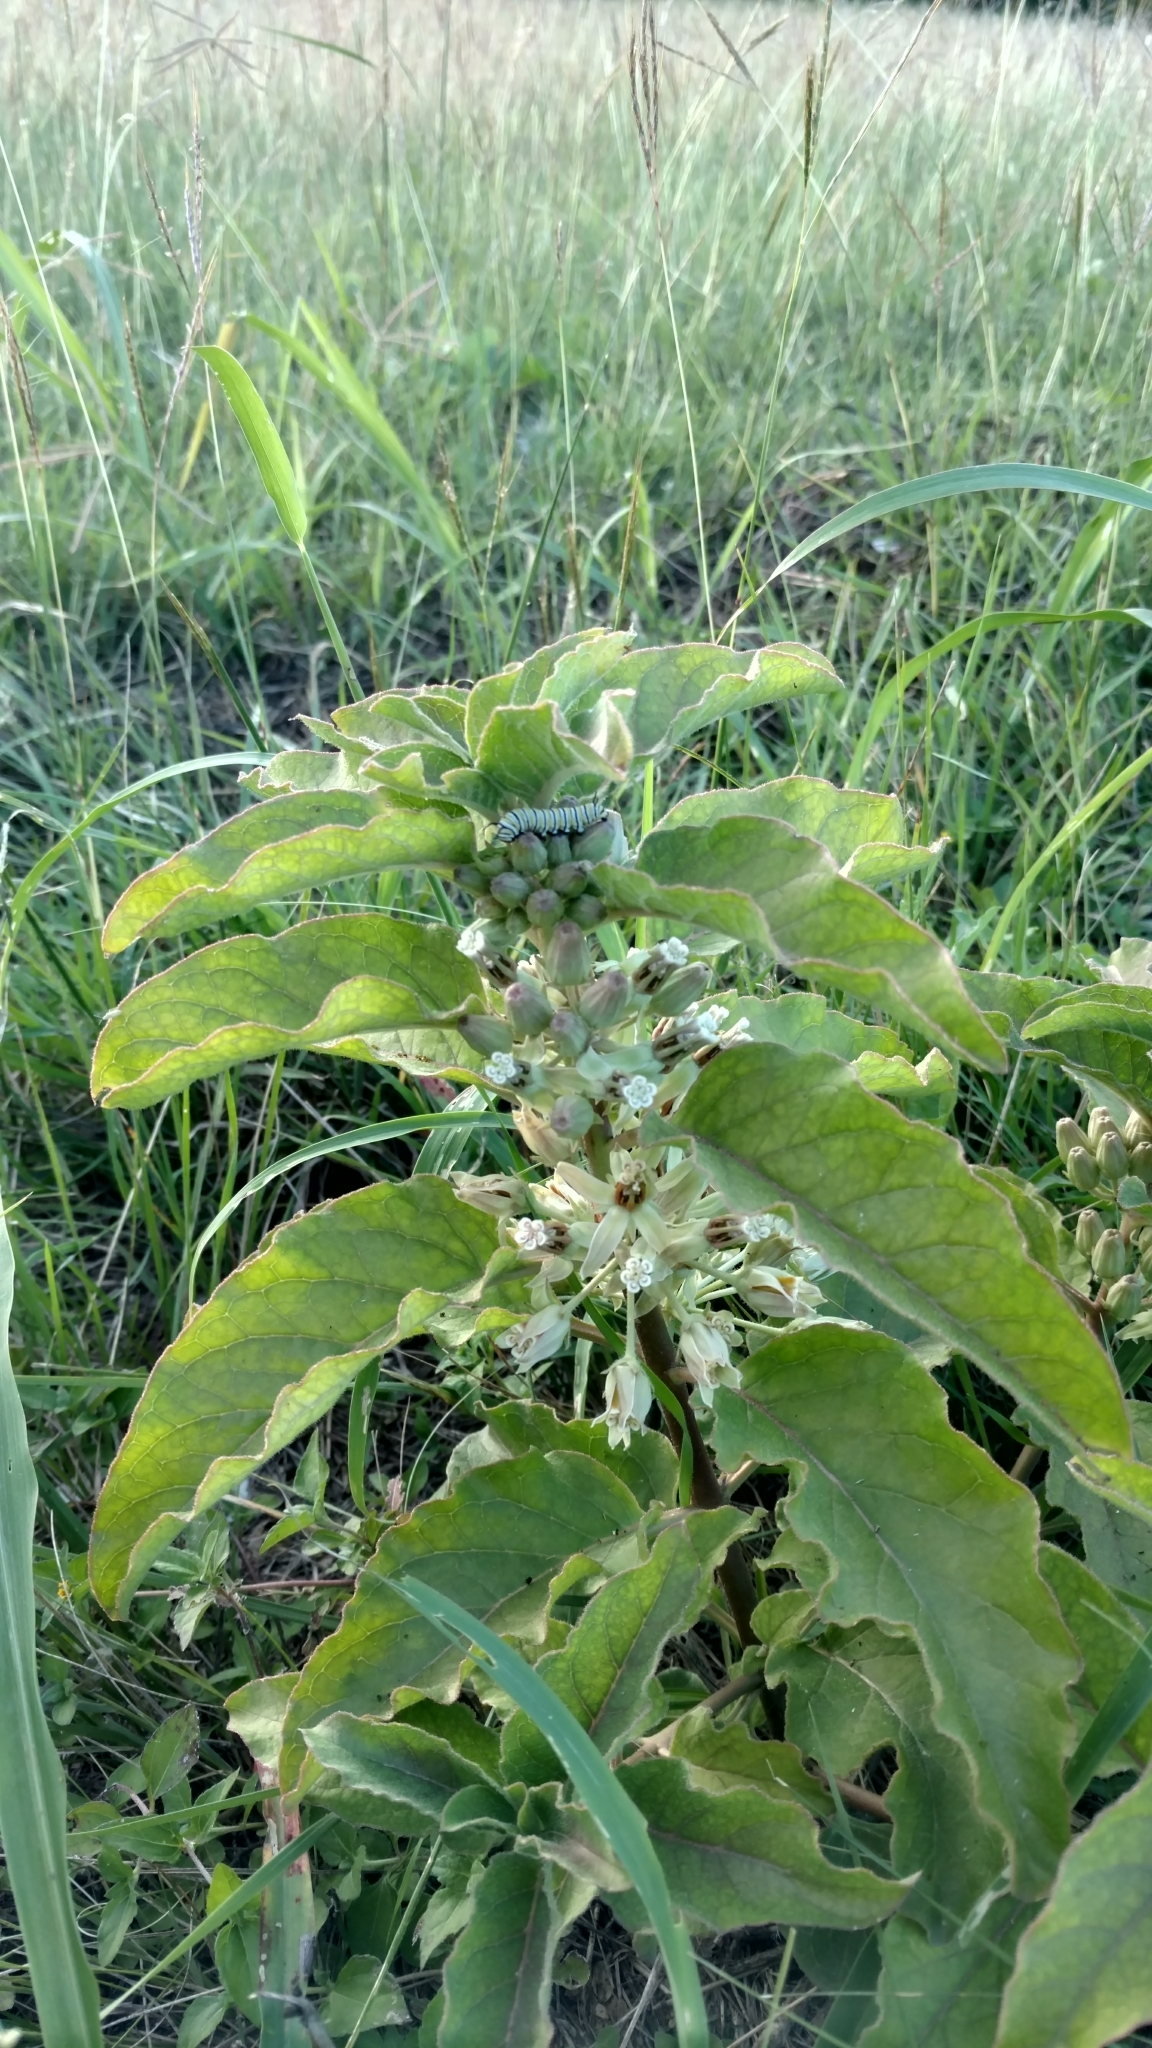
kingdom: Plantae
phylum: Tracheophyta
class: Magnoliopsida
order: Gentianales
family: Apocynaceae
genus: Asclepias
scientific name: Asclepias oenotheroides
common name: Zizotes milkweed
